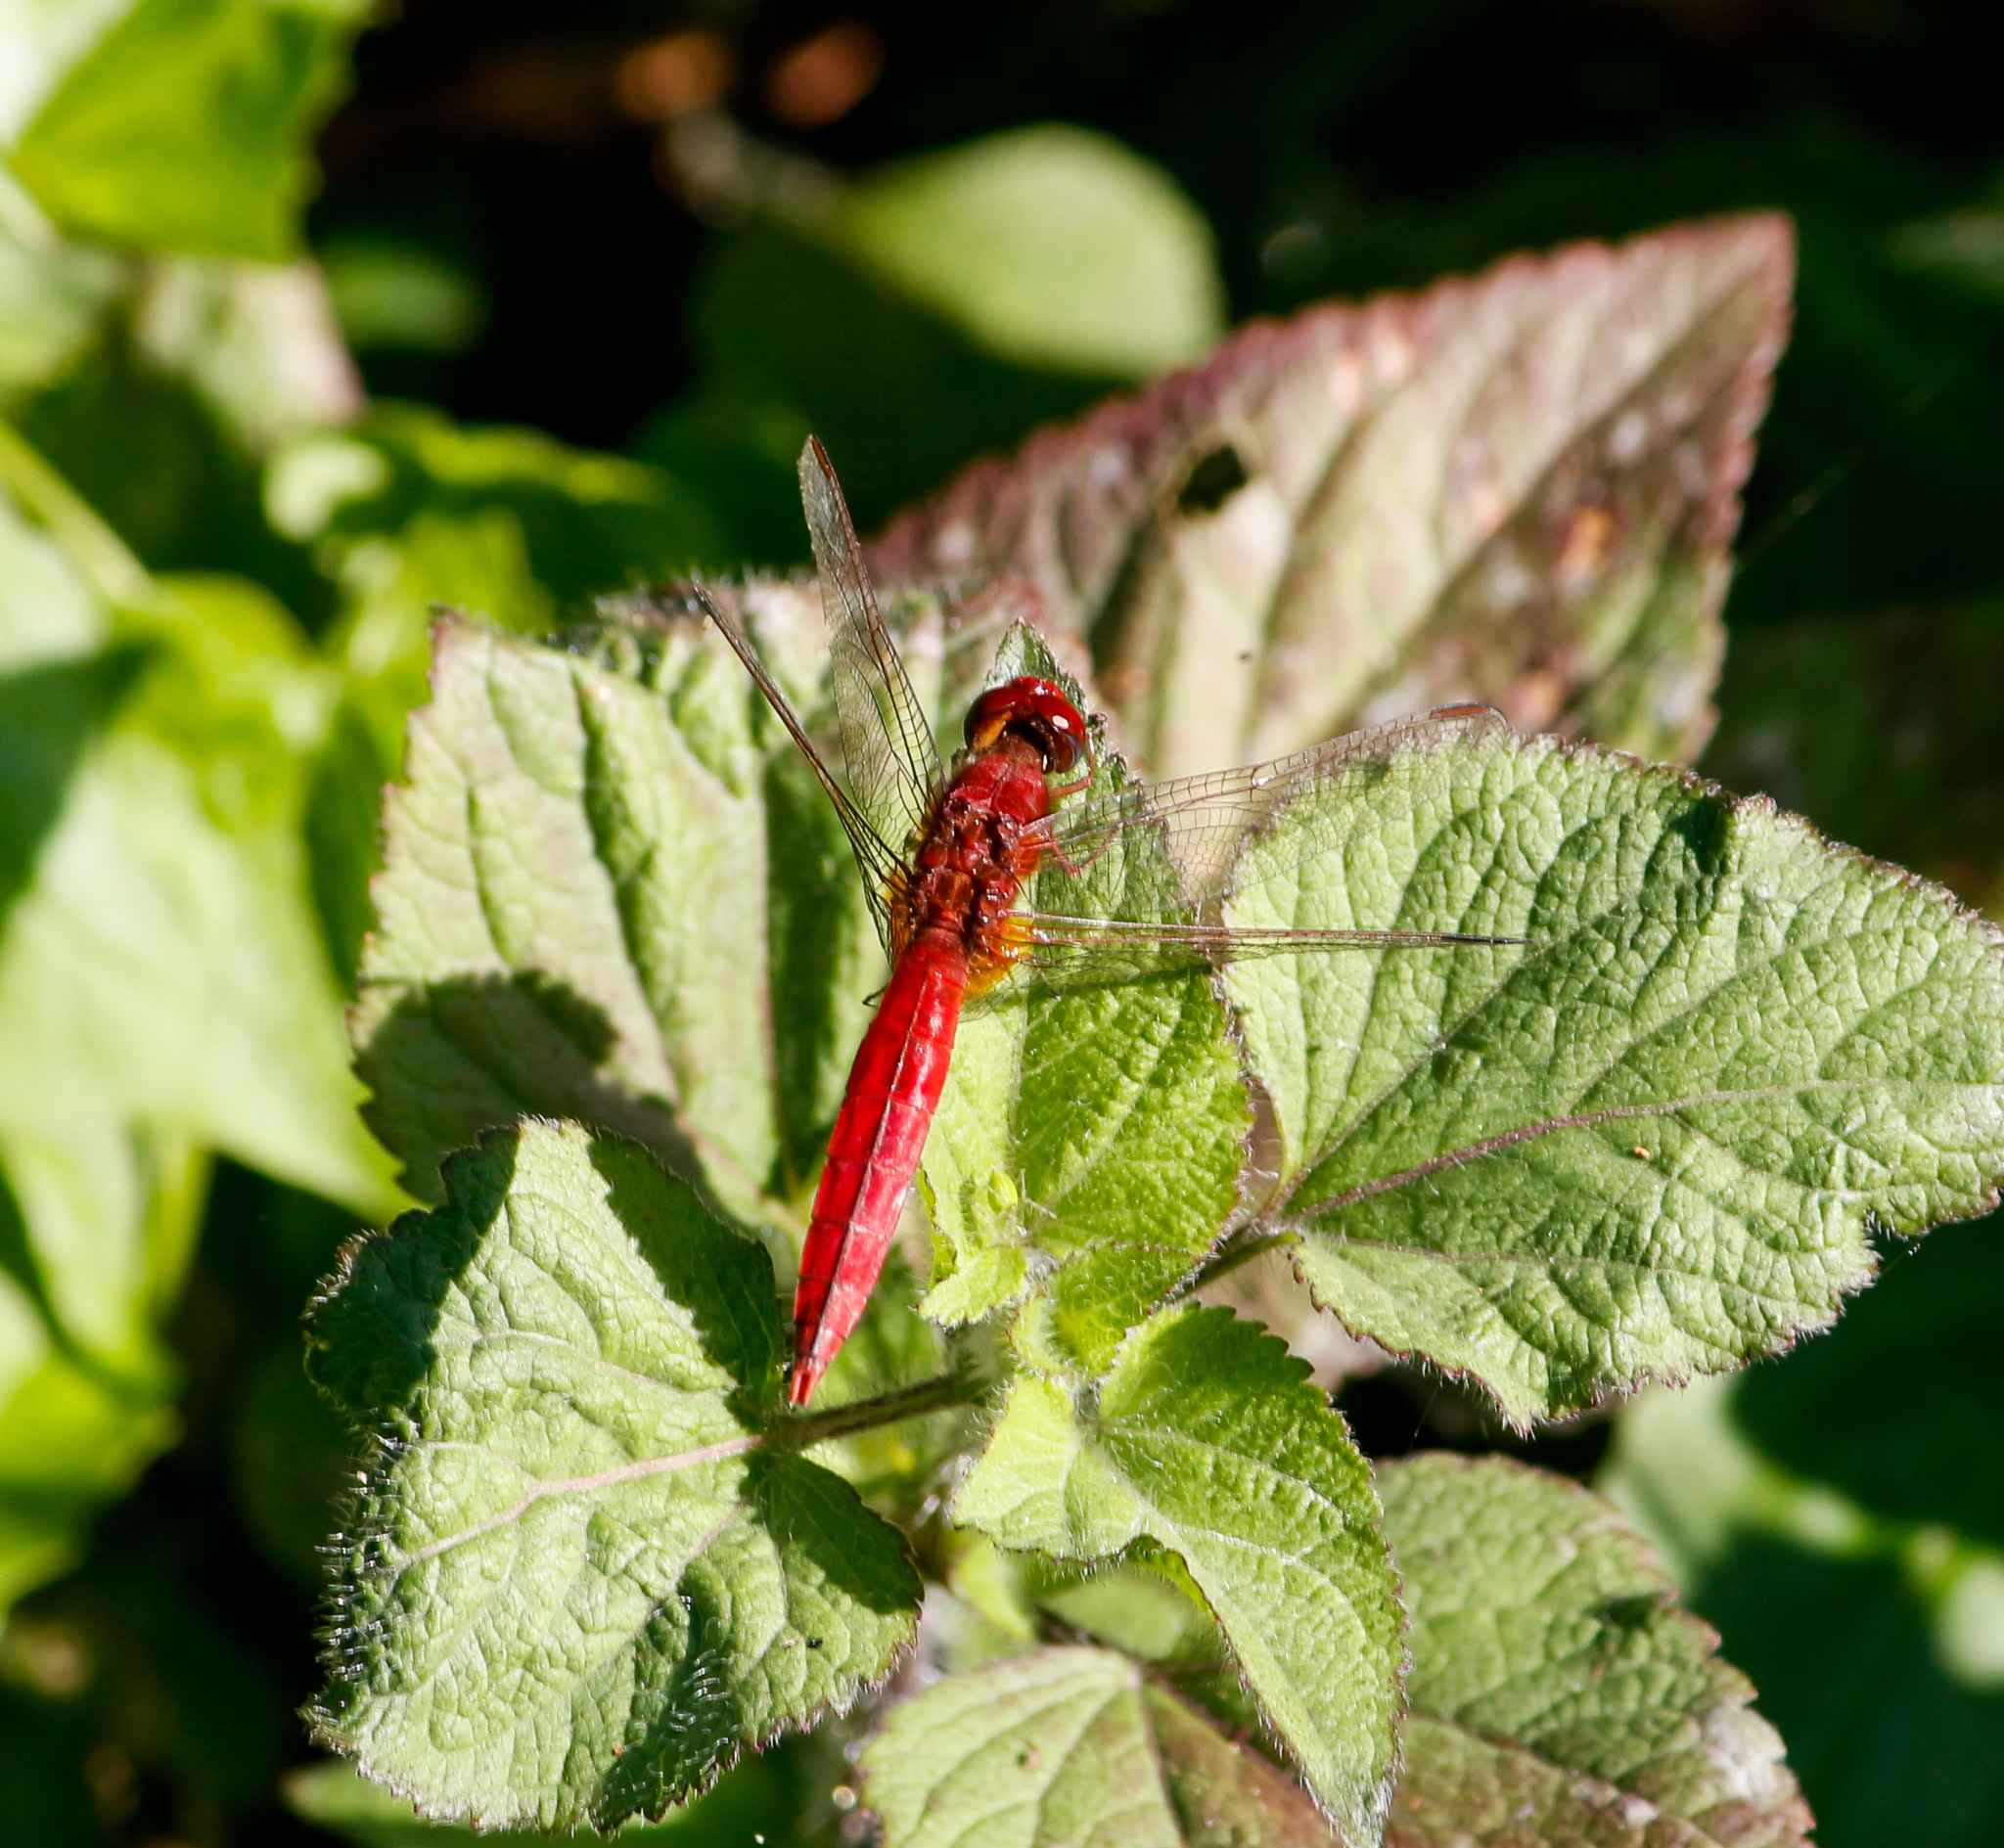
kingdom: Animalia
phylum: Arthropoda
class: Insecta
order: Odonata
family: Libellulidae
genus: Crocothemis
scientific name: Crocothemis servilia
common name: Scarlet skimmer
